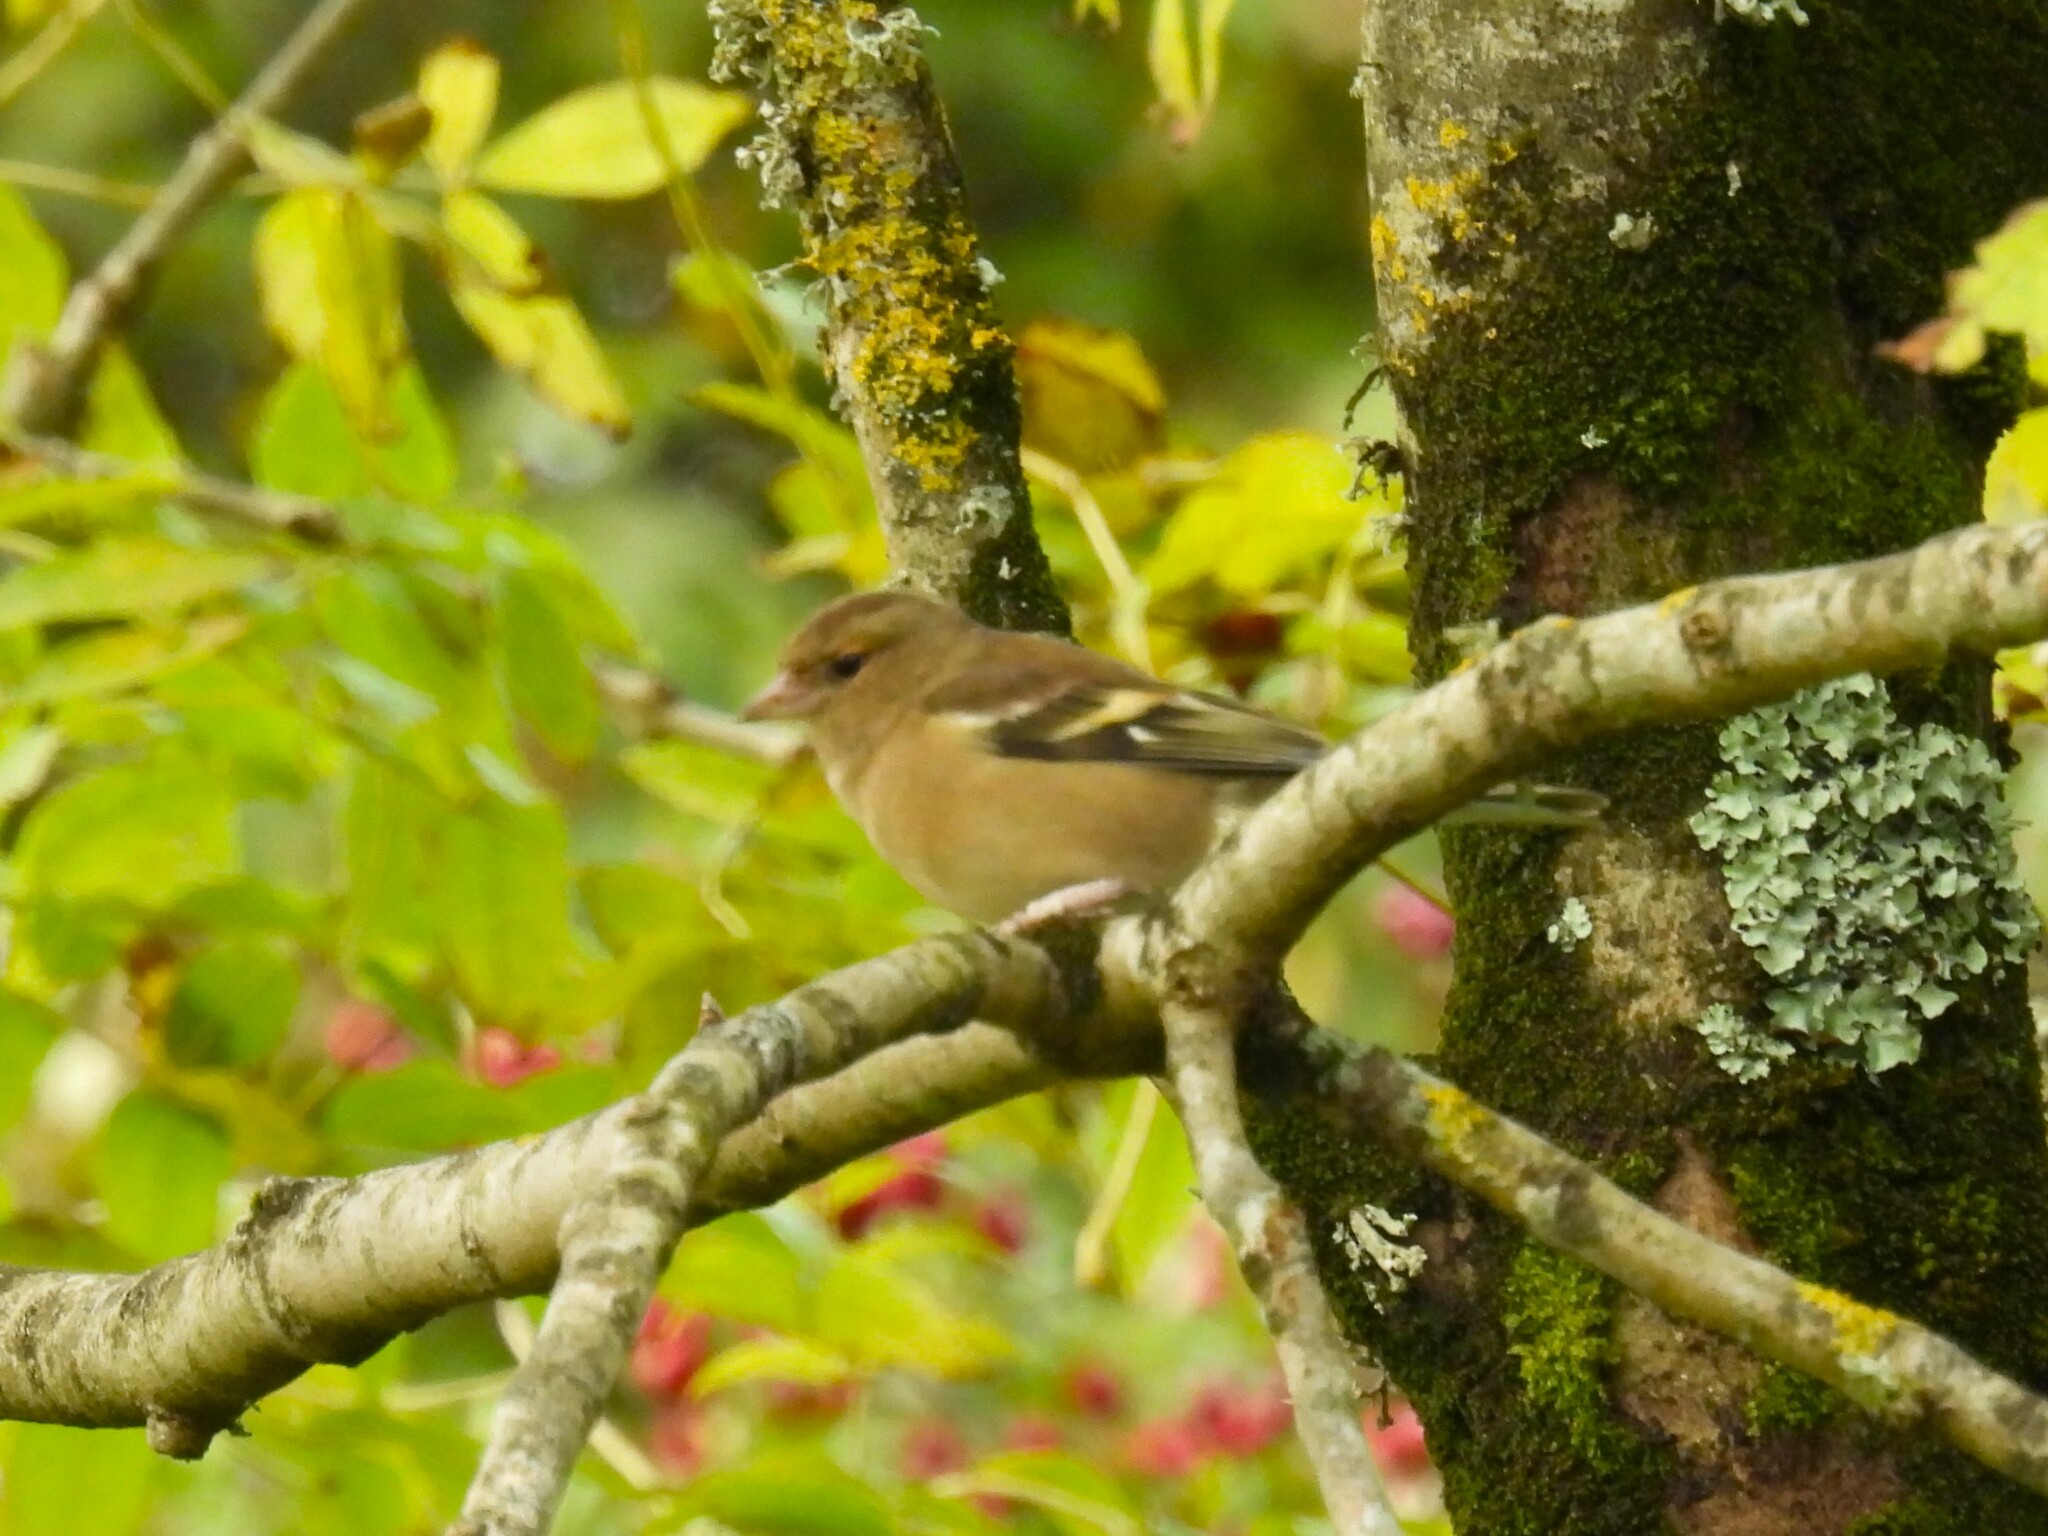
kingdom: Animalia
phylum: Chordata
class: Aves
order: Passeriformes
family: Fringillidae
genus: Fringilla
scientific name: Fringilla coelebs
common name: Common chaffinch
